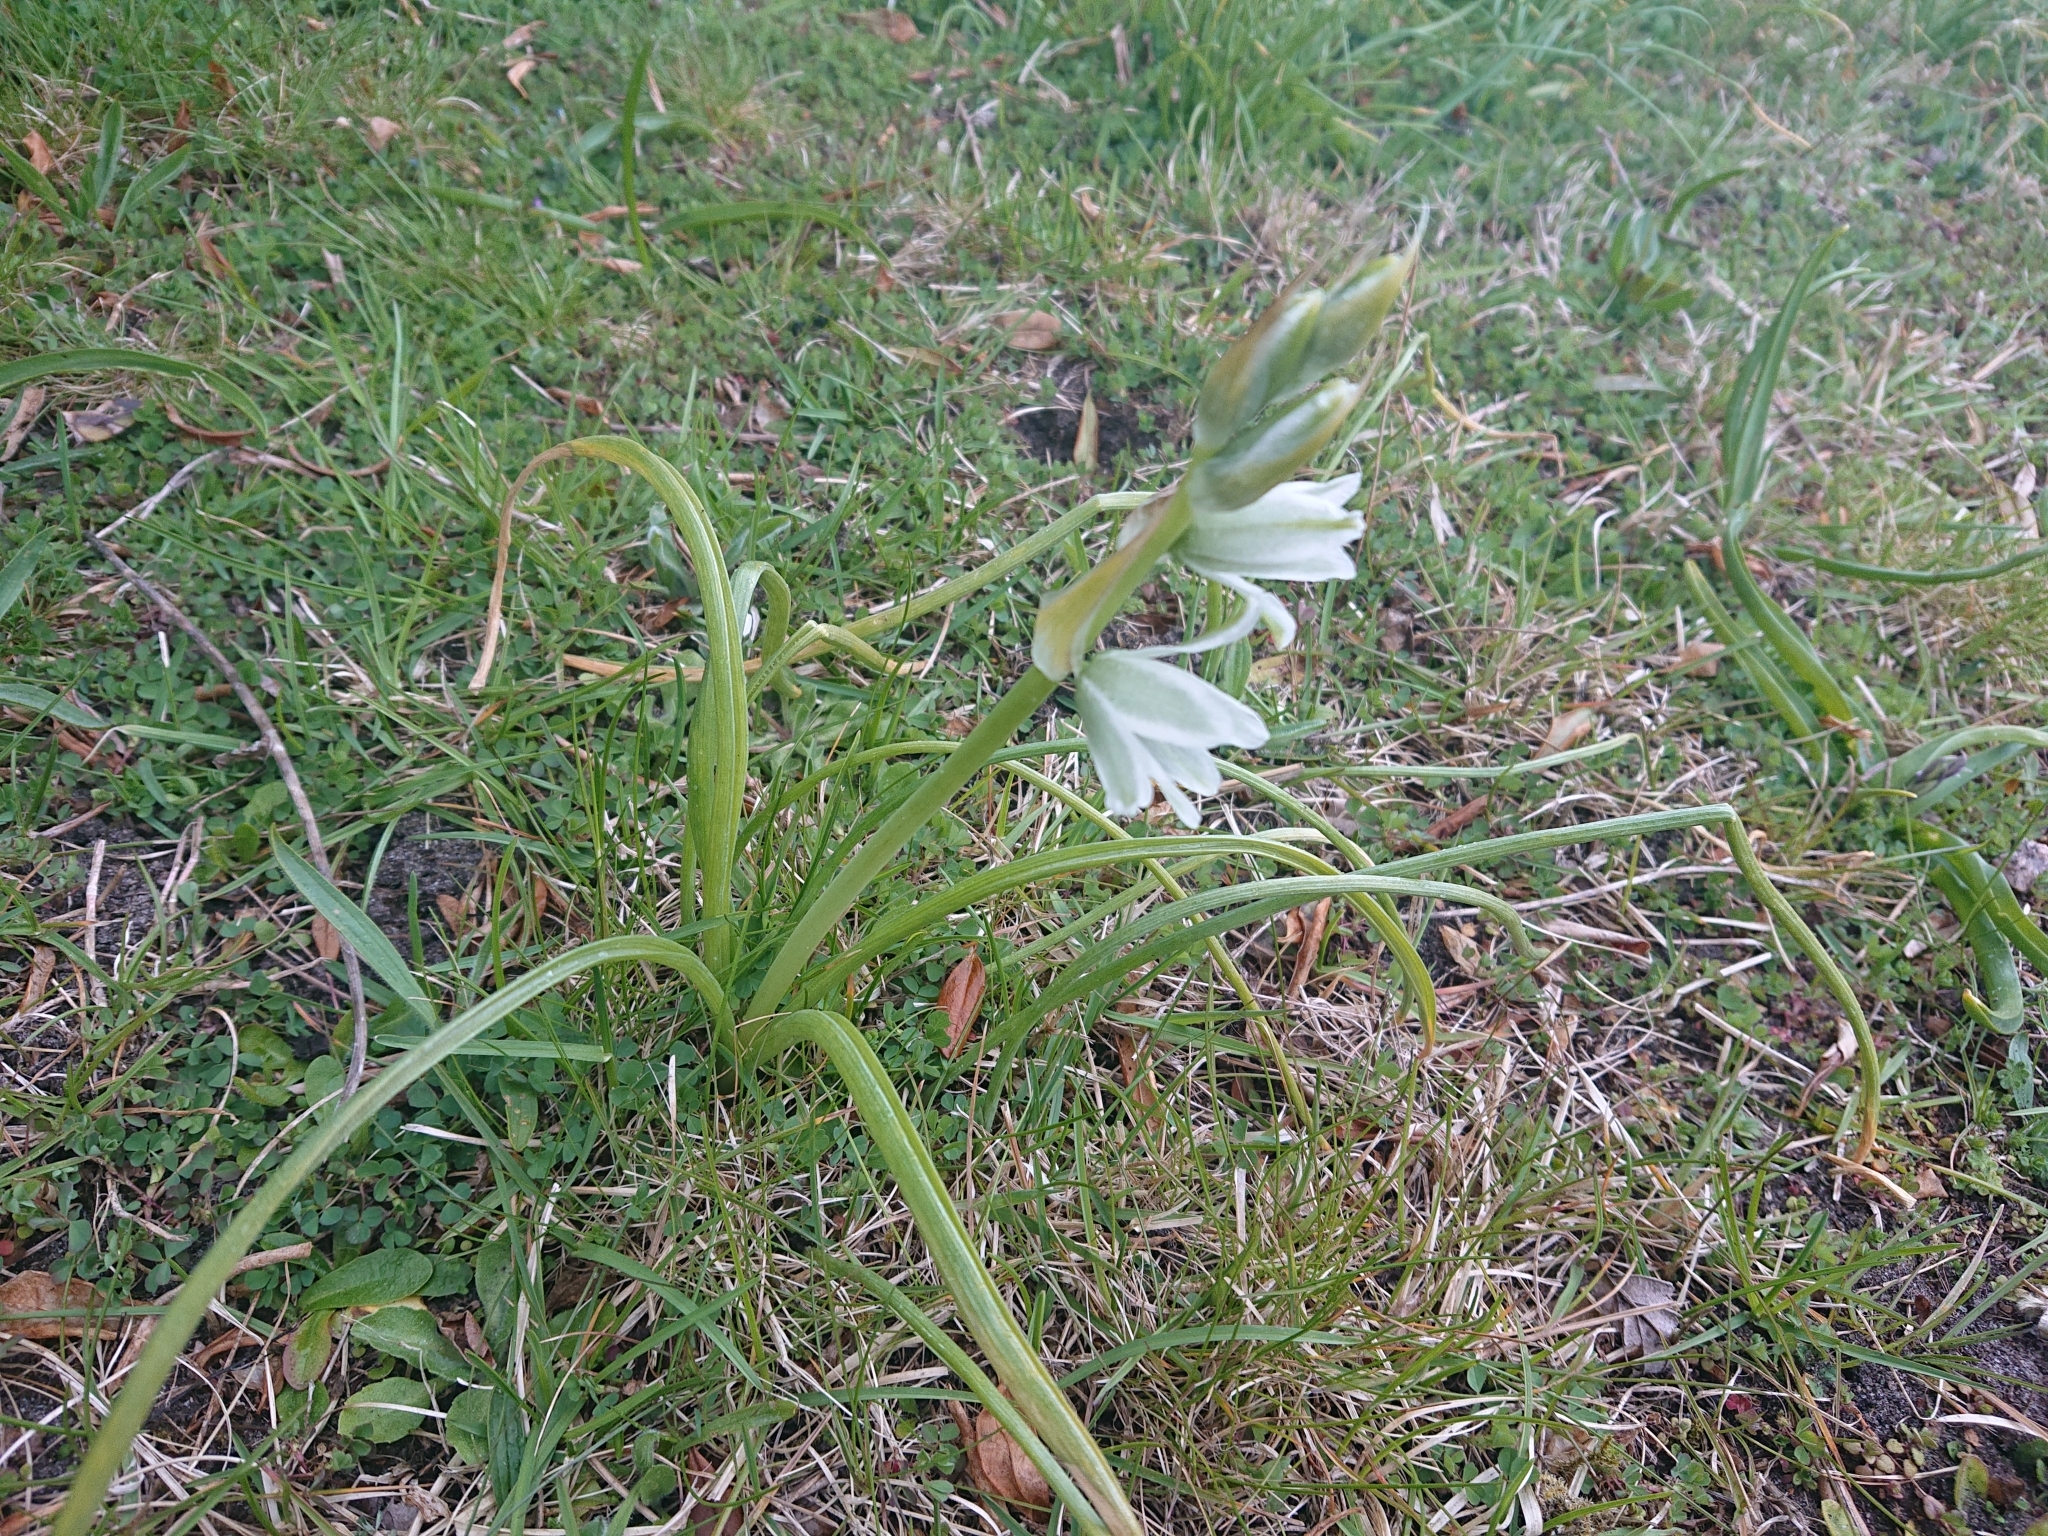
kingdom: Plantae
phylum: Tracheophyta
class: Liliopsida
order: Asparagales
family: Asparagaceae
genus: Ornithogalum
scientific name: Ornithogalum nutans
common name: Drooping star-of-bethlehem
